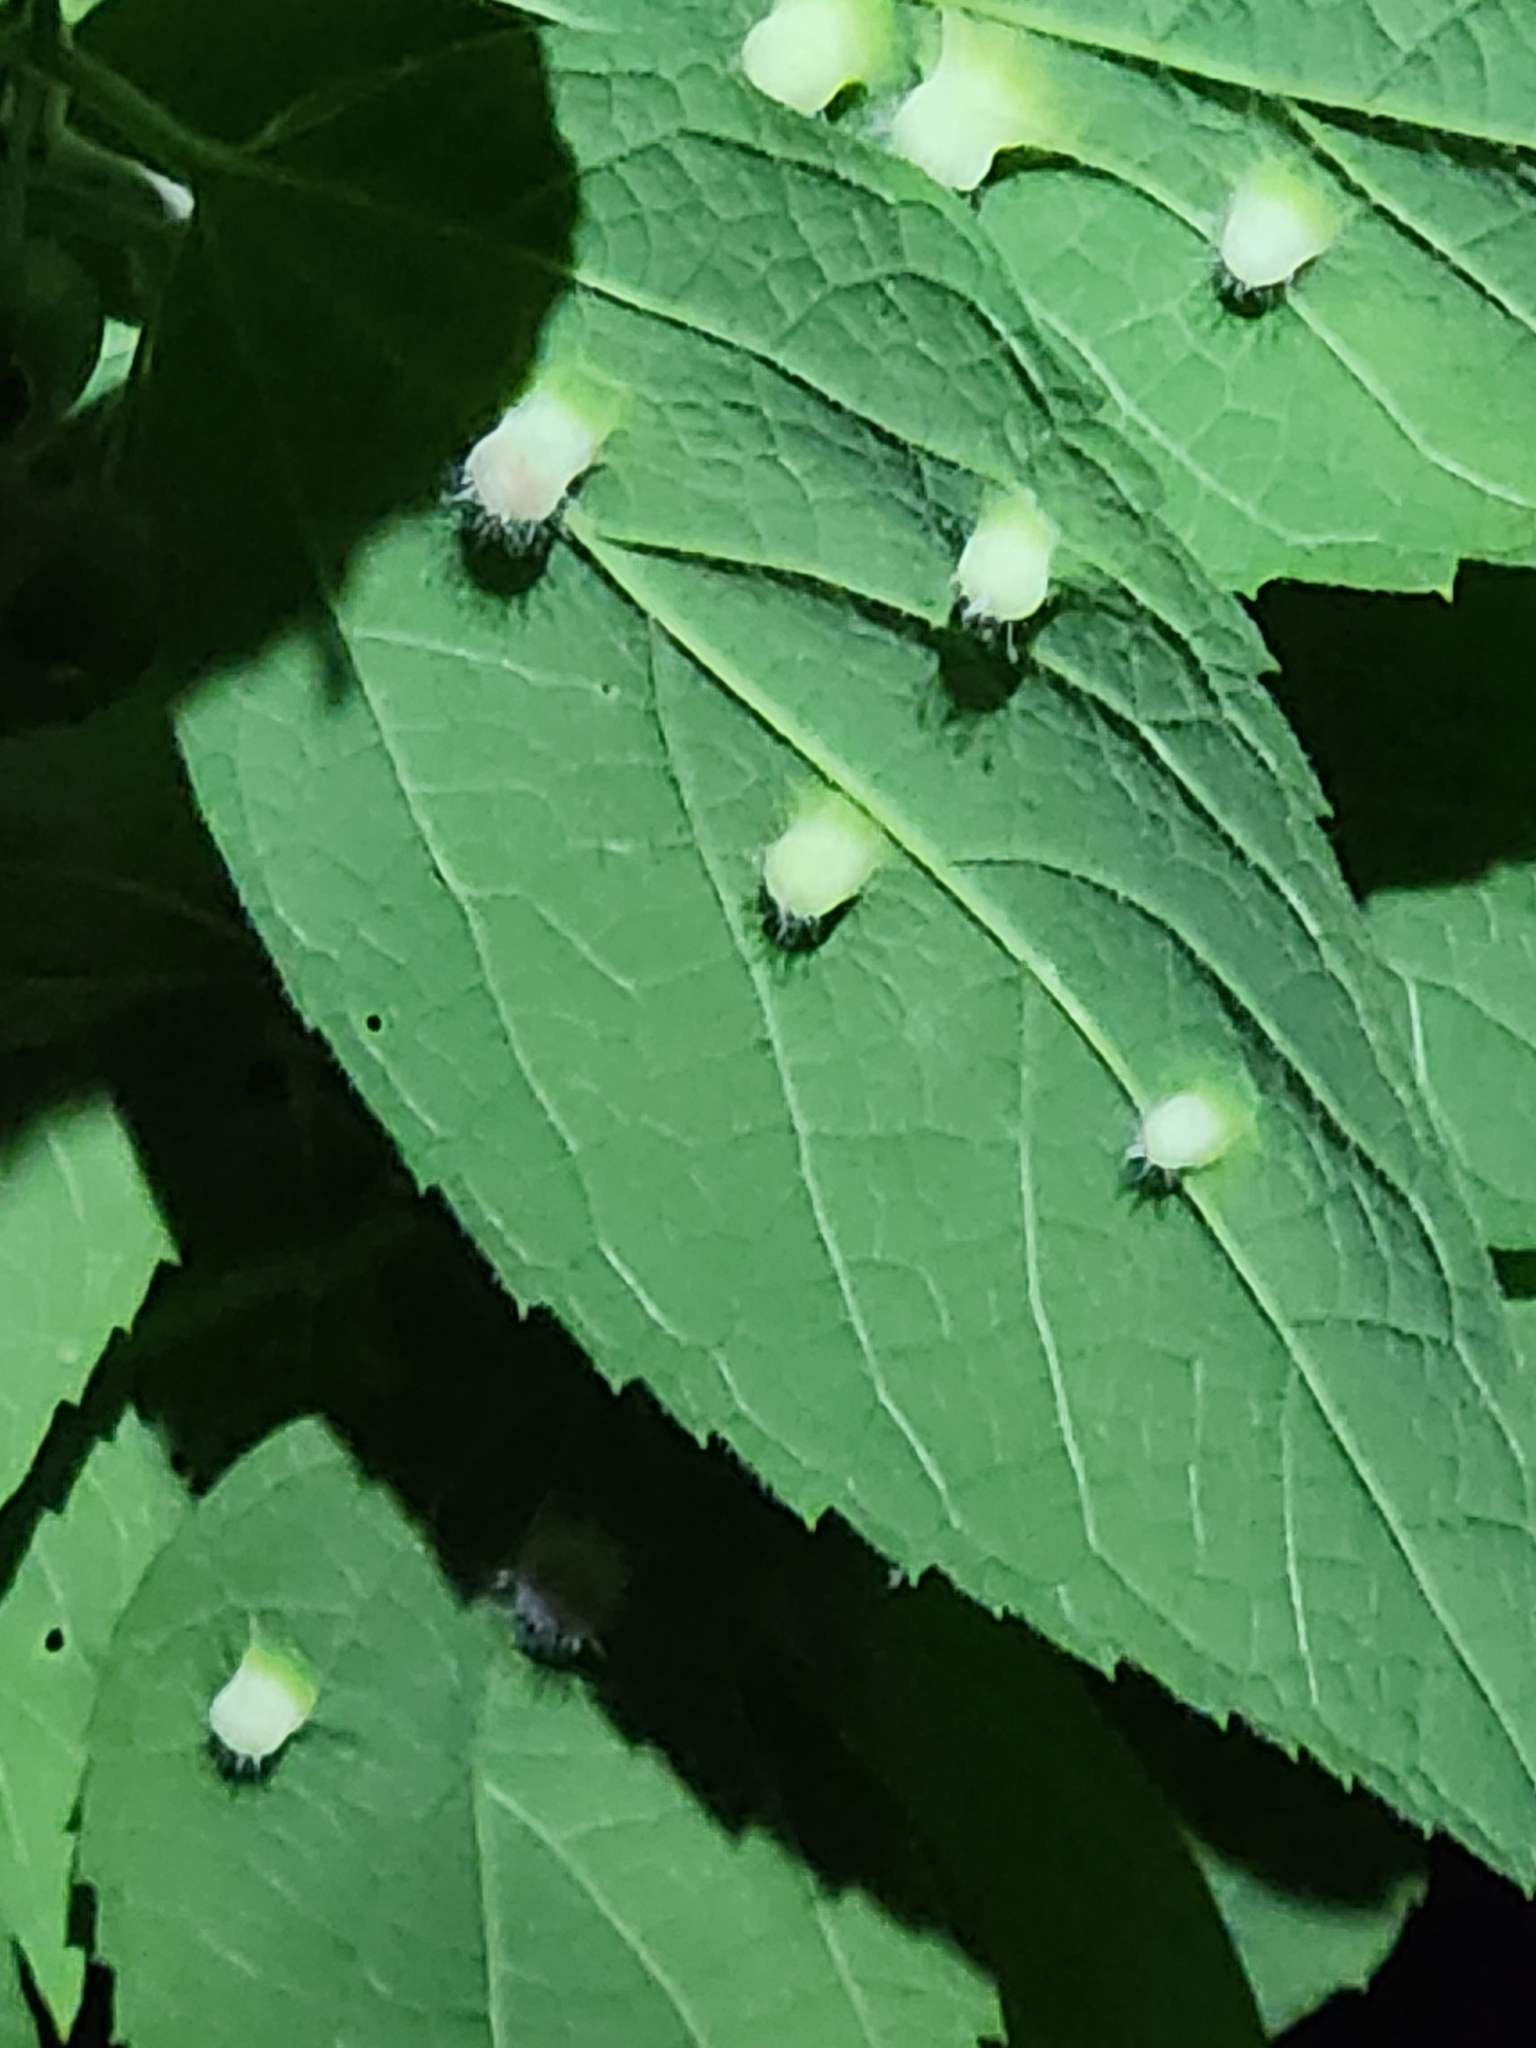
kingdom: Animalia
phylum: Arthropoda
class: Insecta
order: Hemiptera
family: Aphalaridae
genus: Pachypsylla
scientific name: Pachypsylla celtidismamma
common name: Hackberry nipplegall psyllid
